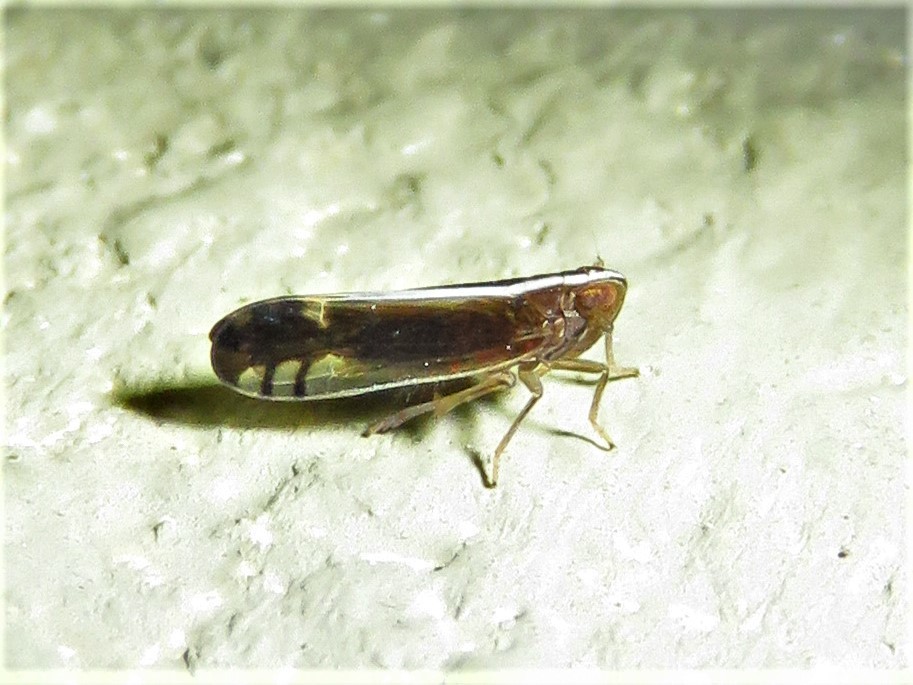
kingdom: Animalia
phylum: Arthropoda
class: Insecta
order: Hemiptera
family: Delphacidae
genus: Stenocranus
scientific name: Stenocranus brunneus
